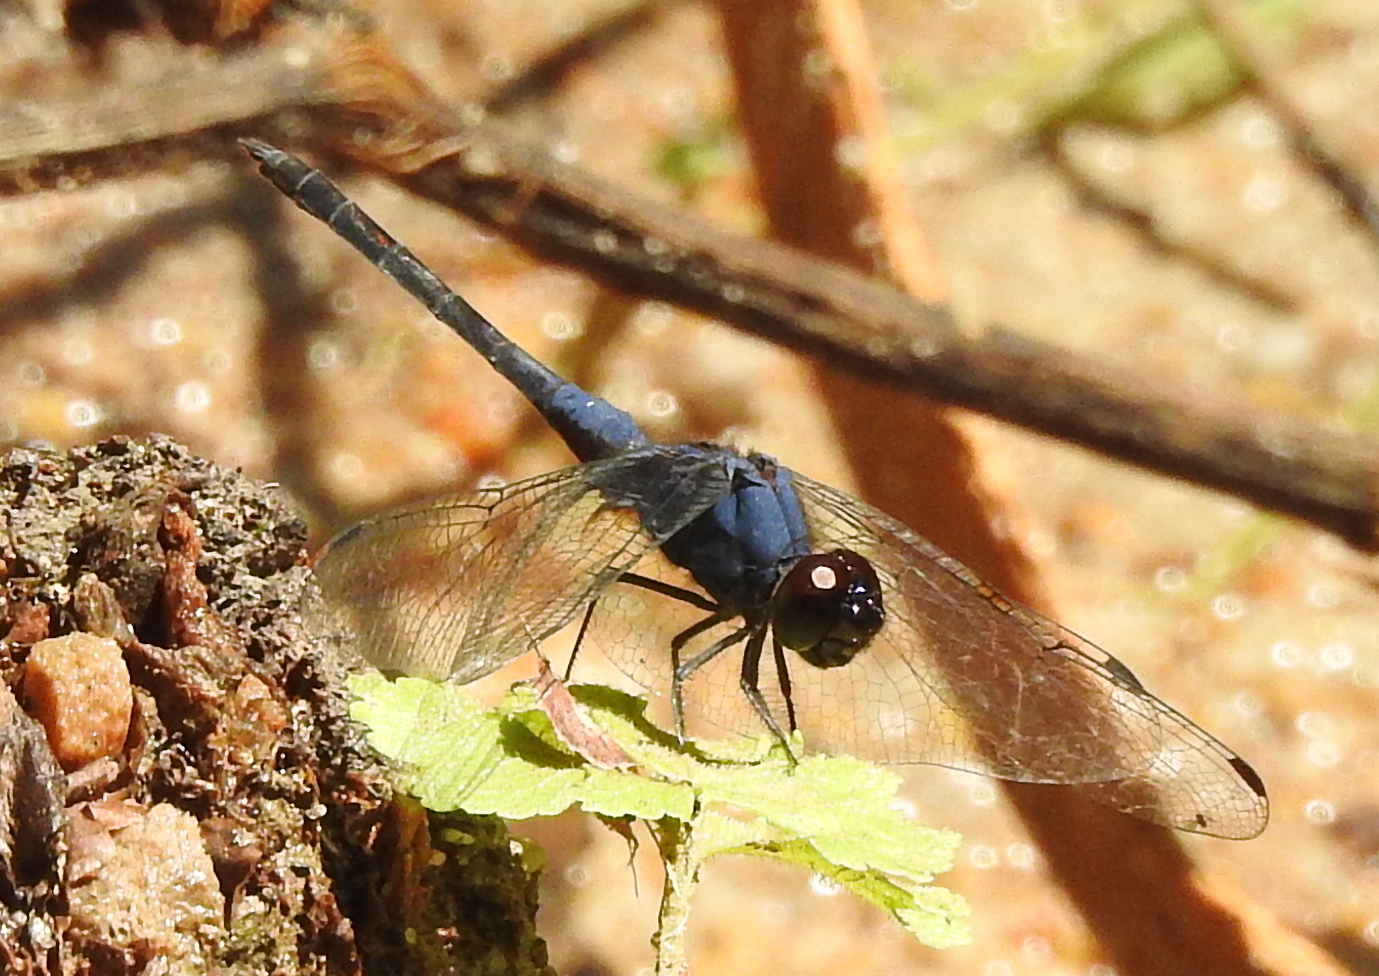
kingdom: Animalia
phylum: Arthropoda
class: Insecta
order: Odonata
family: Libellulidae
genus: Trithemis
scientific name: Trithemis festiva
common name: Indigo dropwing
